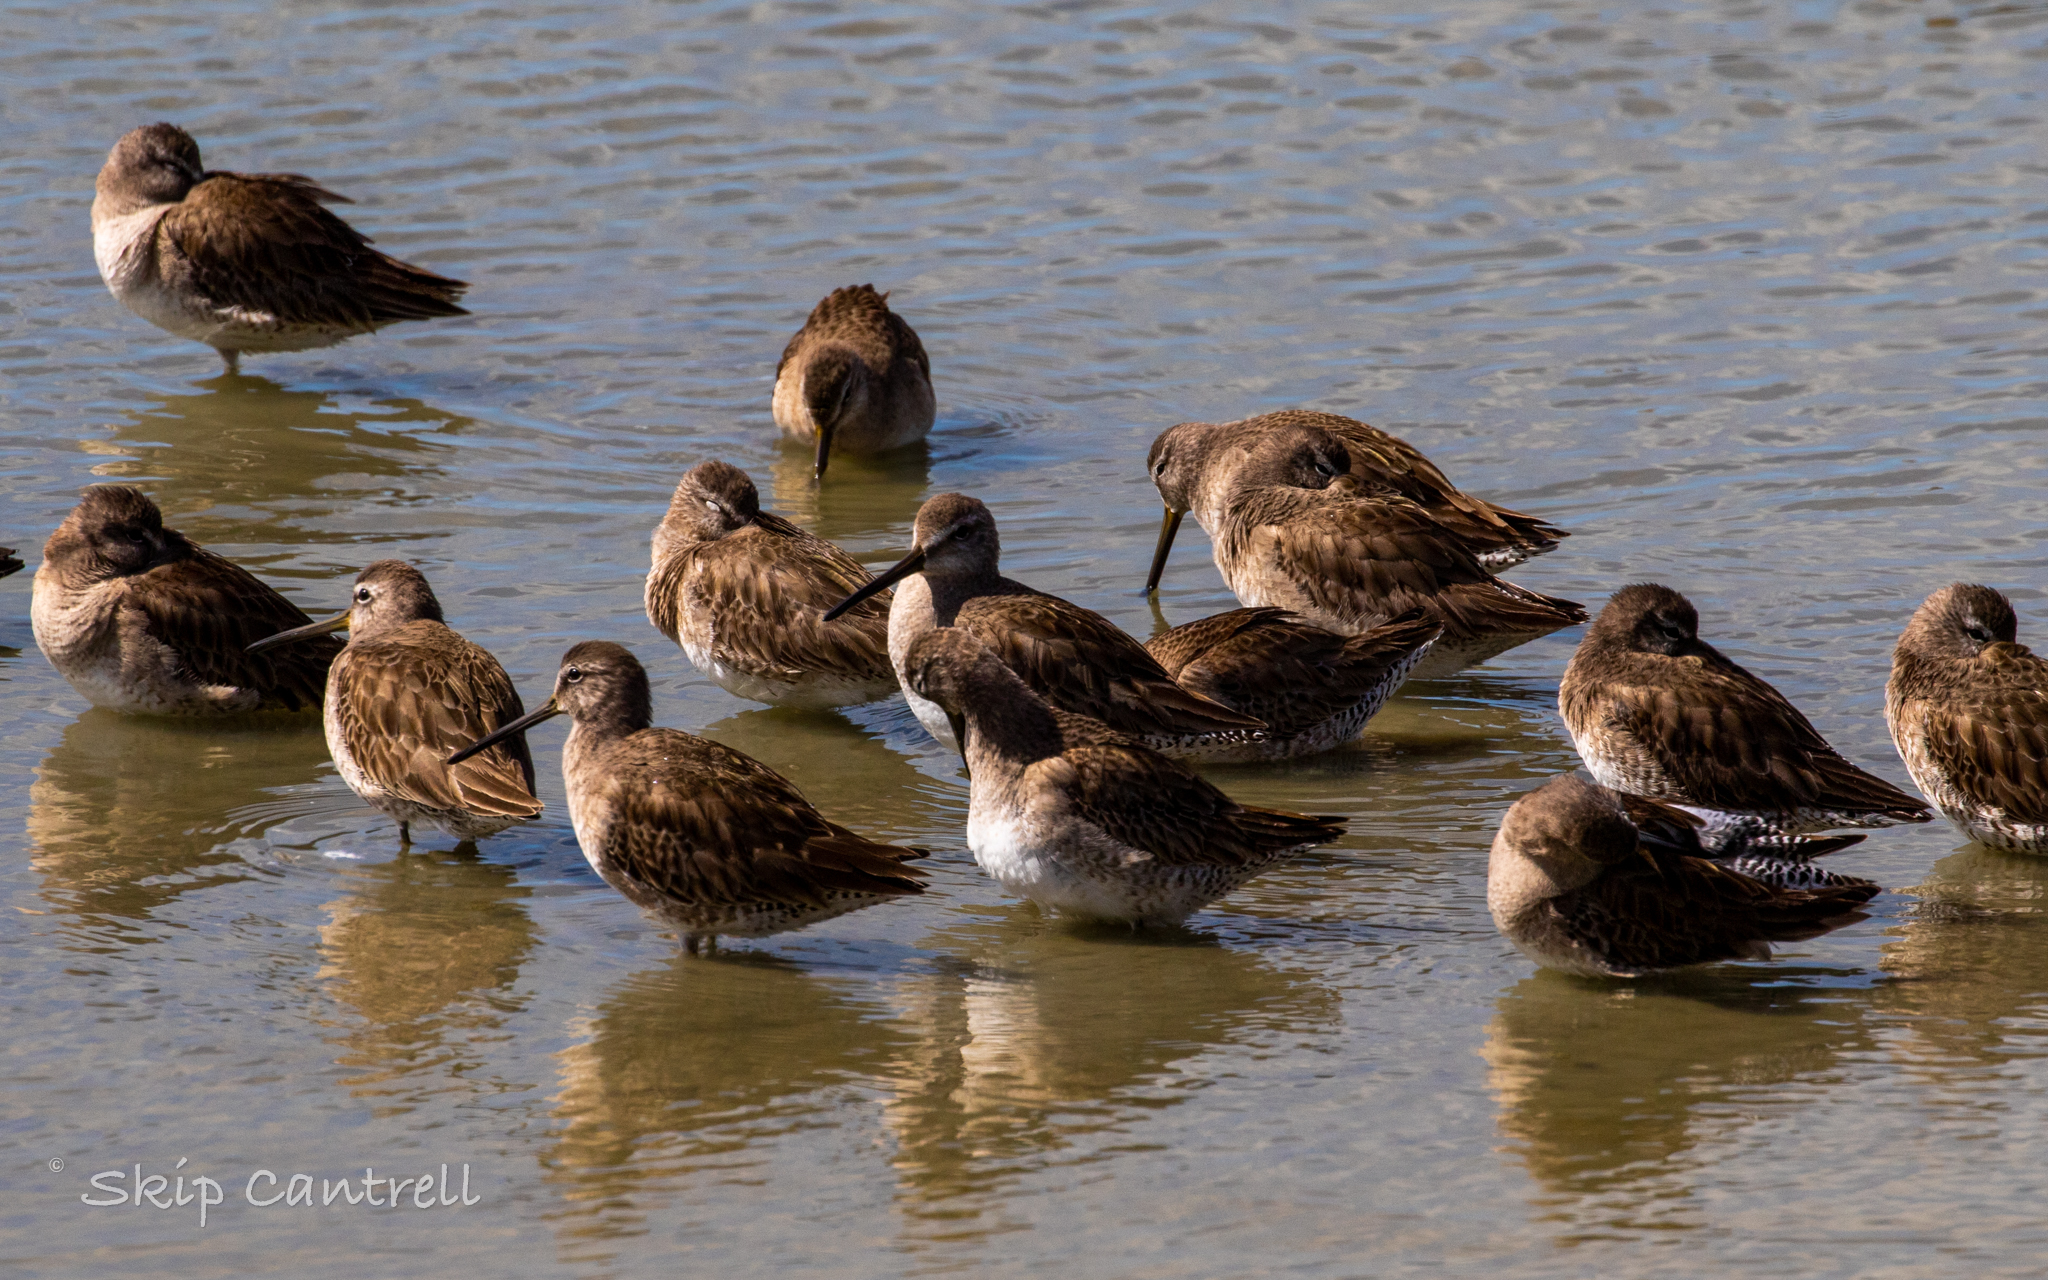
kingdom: Animalia
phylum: Chordata
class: Aves
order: Charadriiformes
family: Scolopacidae
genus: Limnodromus
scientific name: Limnodromus scolopaceus
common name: Long-billed dowitcher
